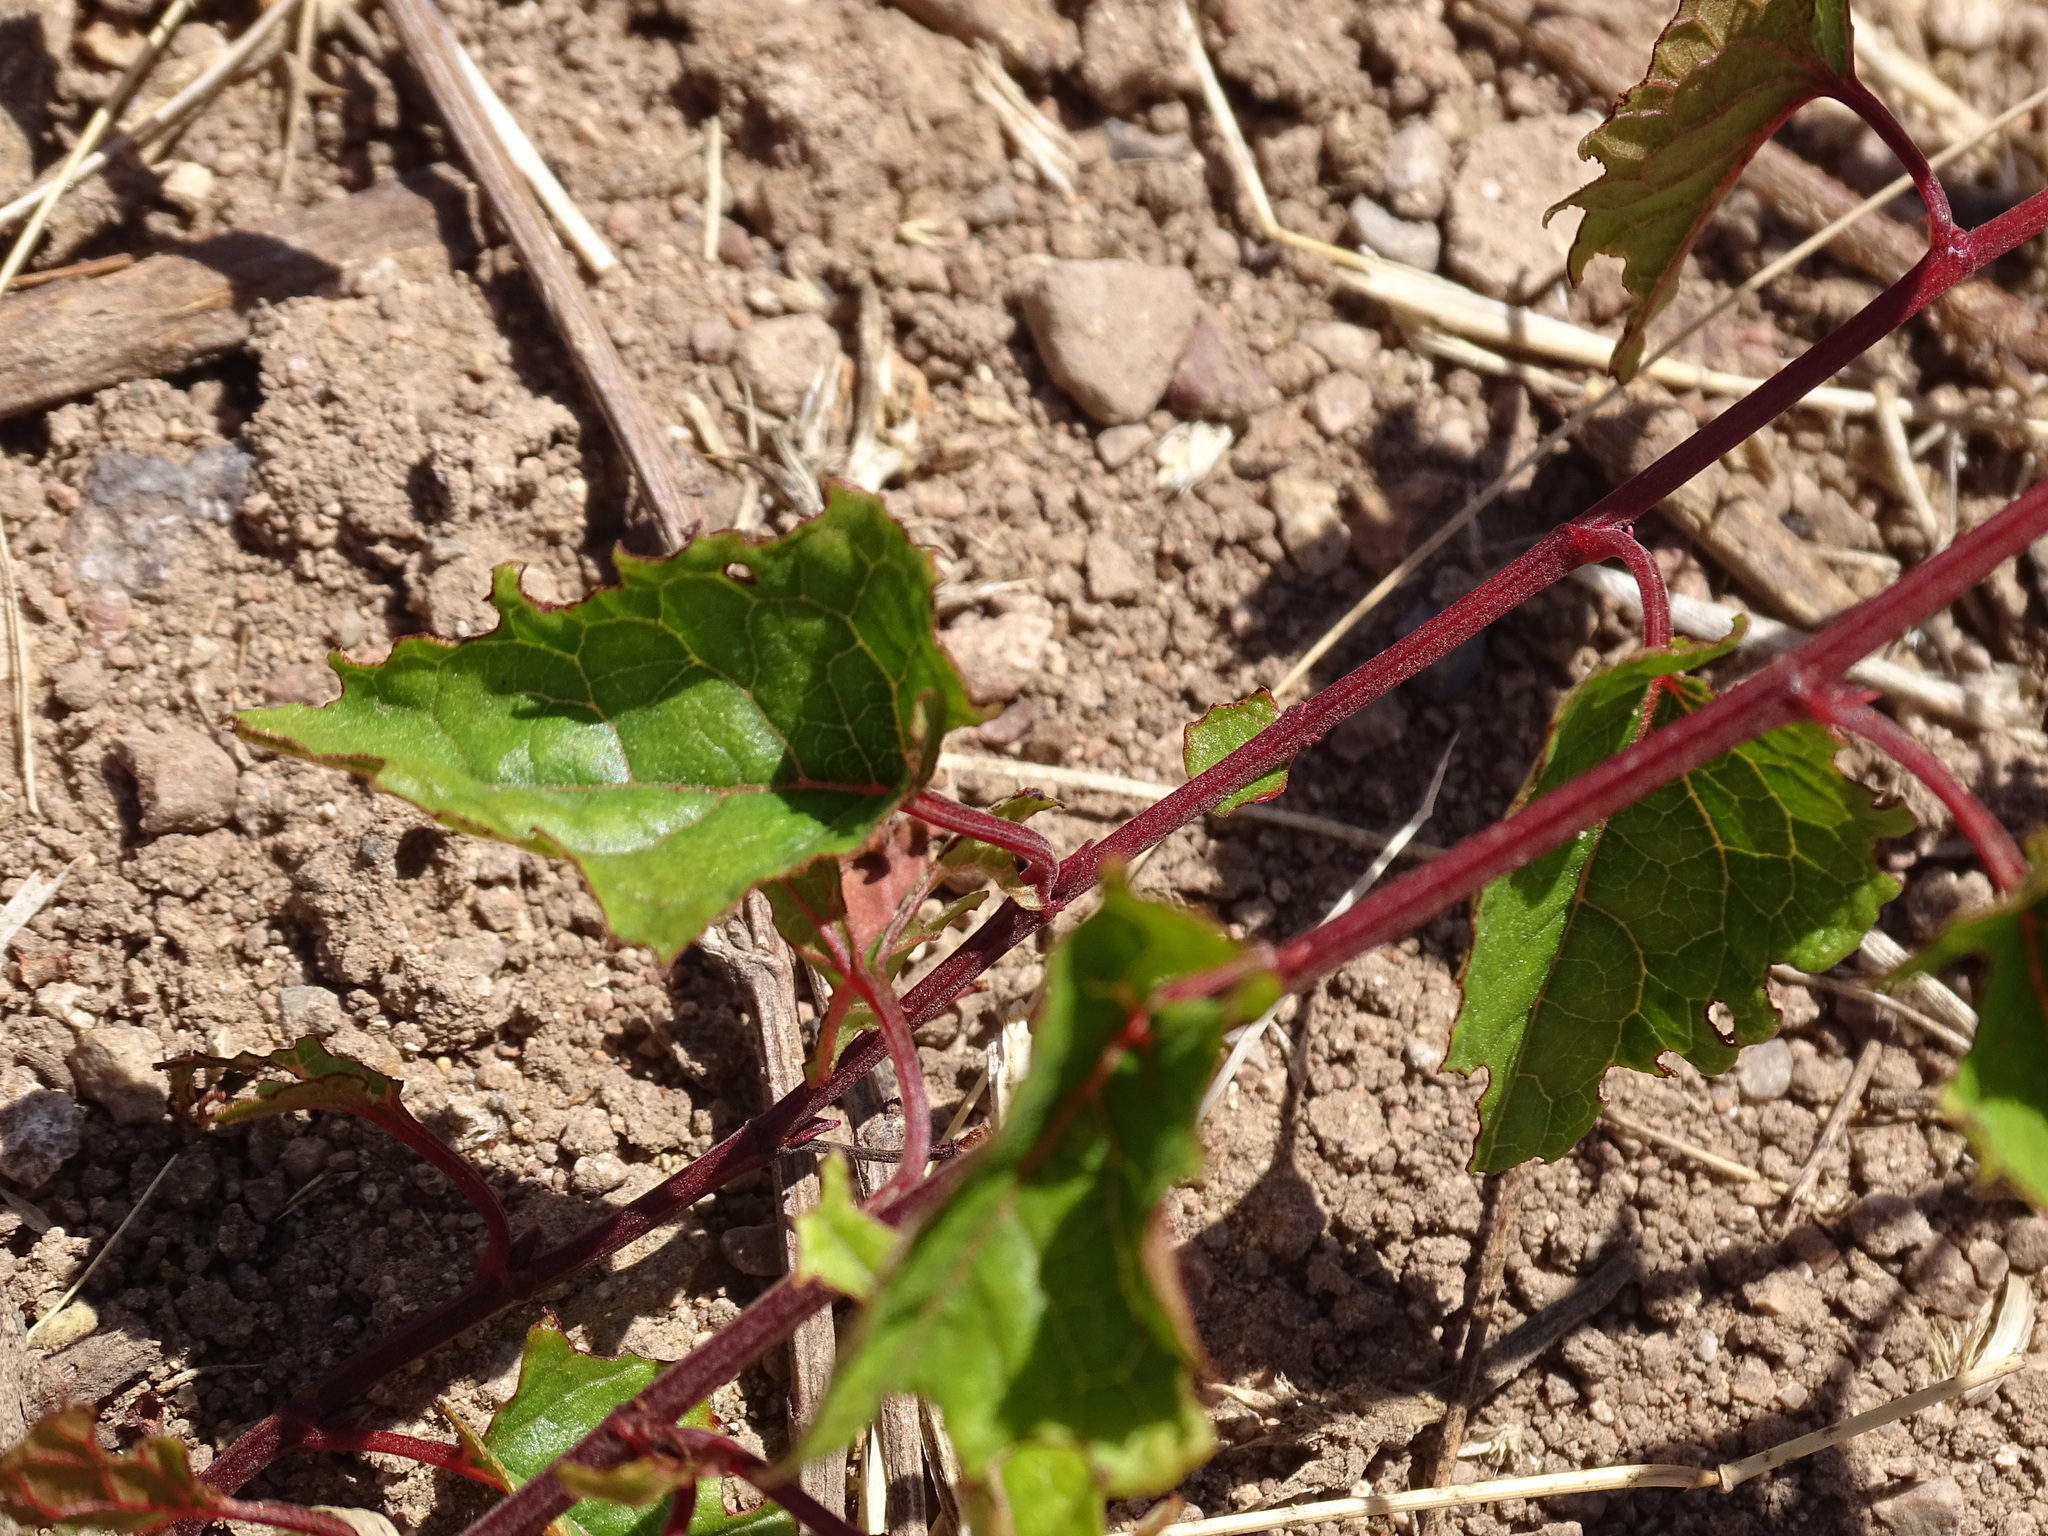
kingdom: Plantae
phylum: Tracheophyta
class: Magnoliopsida
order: Caryophyllales
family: Polygonaceae
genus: Antigonon
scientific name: Antigonon leptopus
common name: Coral vine
